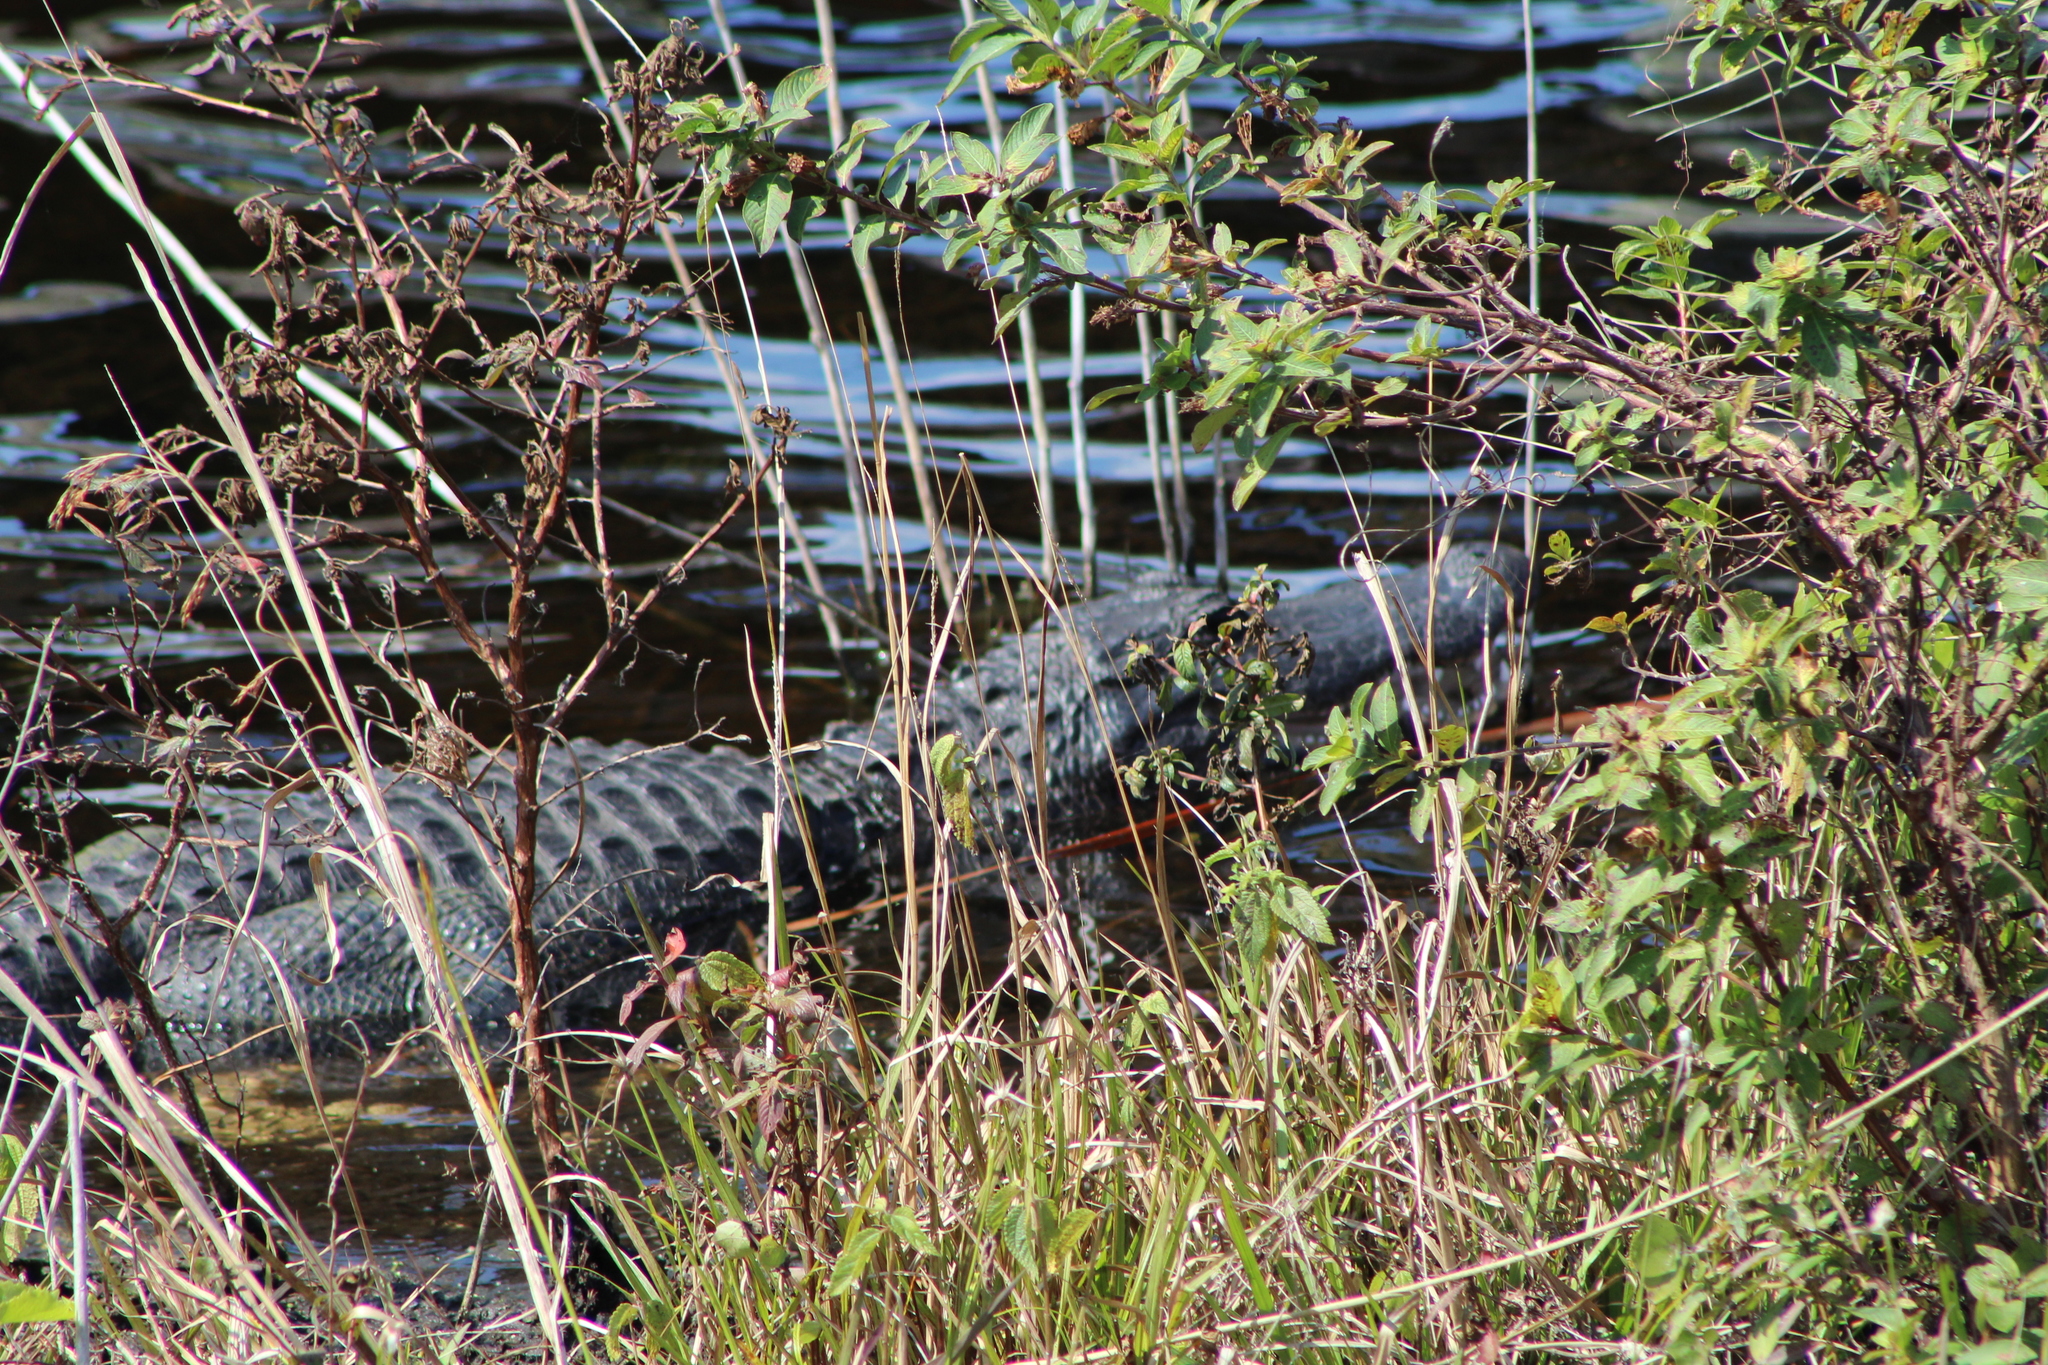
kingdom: Animalia
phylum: Chordata
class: Crocodylia
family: Alligatoridae
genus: Alligator
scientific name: Alligator mississippiensis
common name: American alligator
